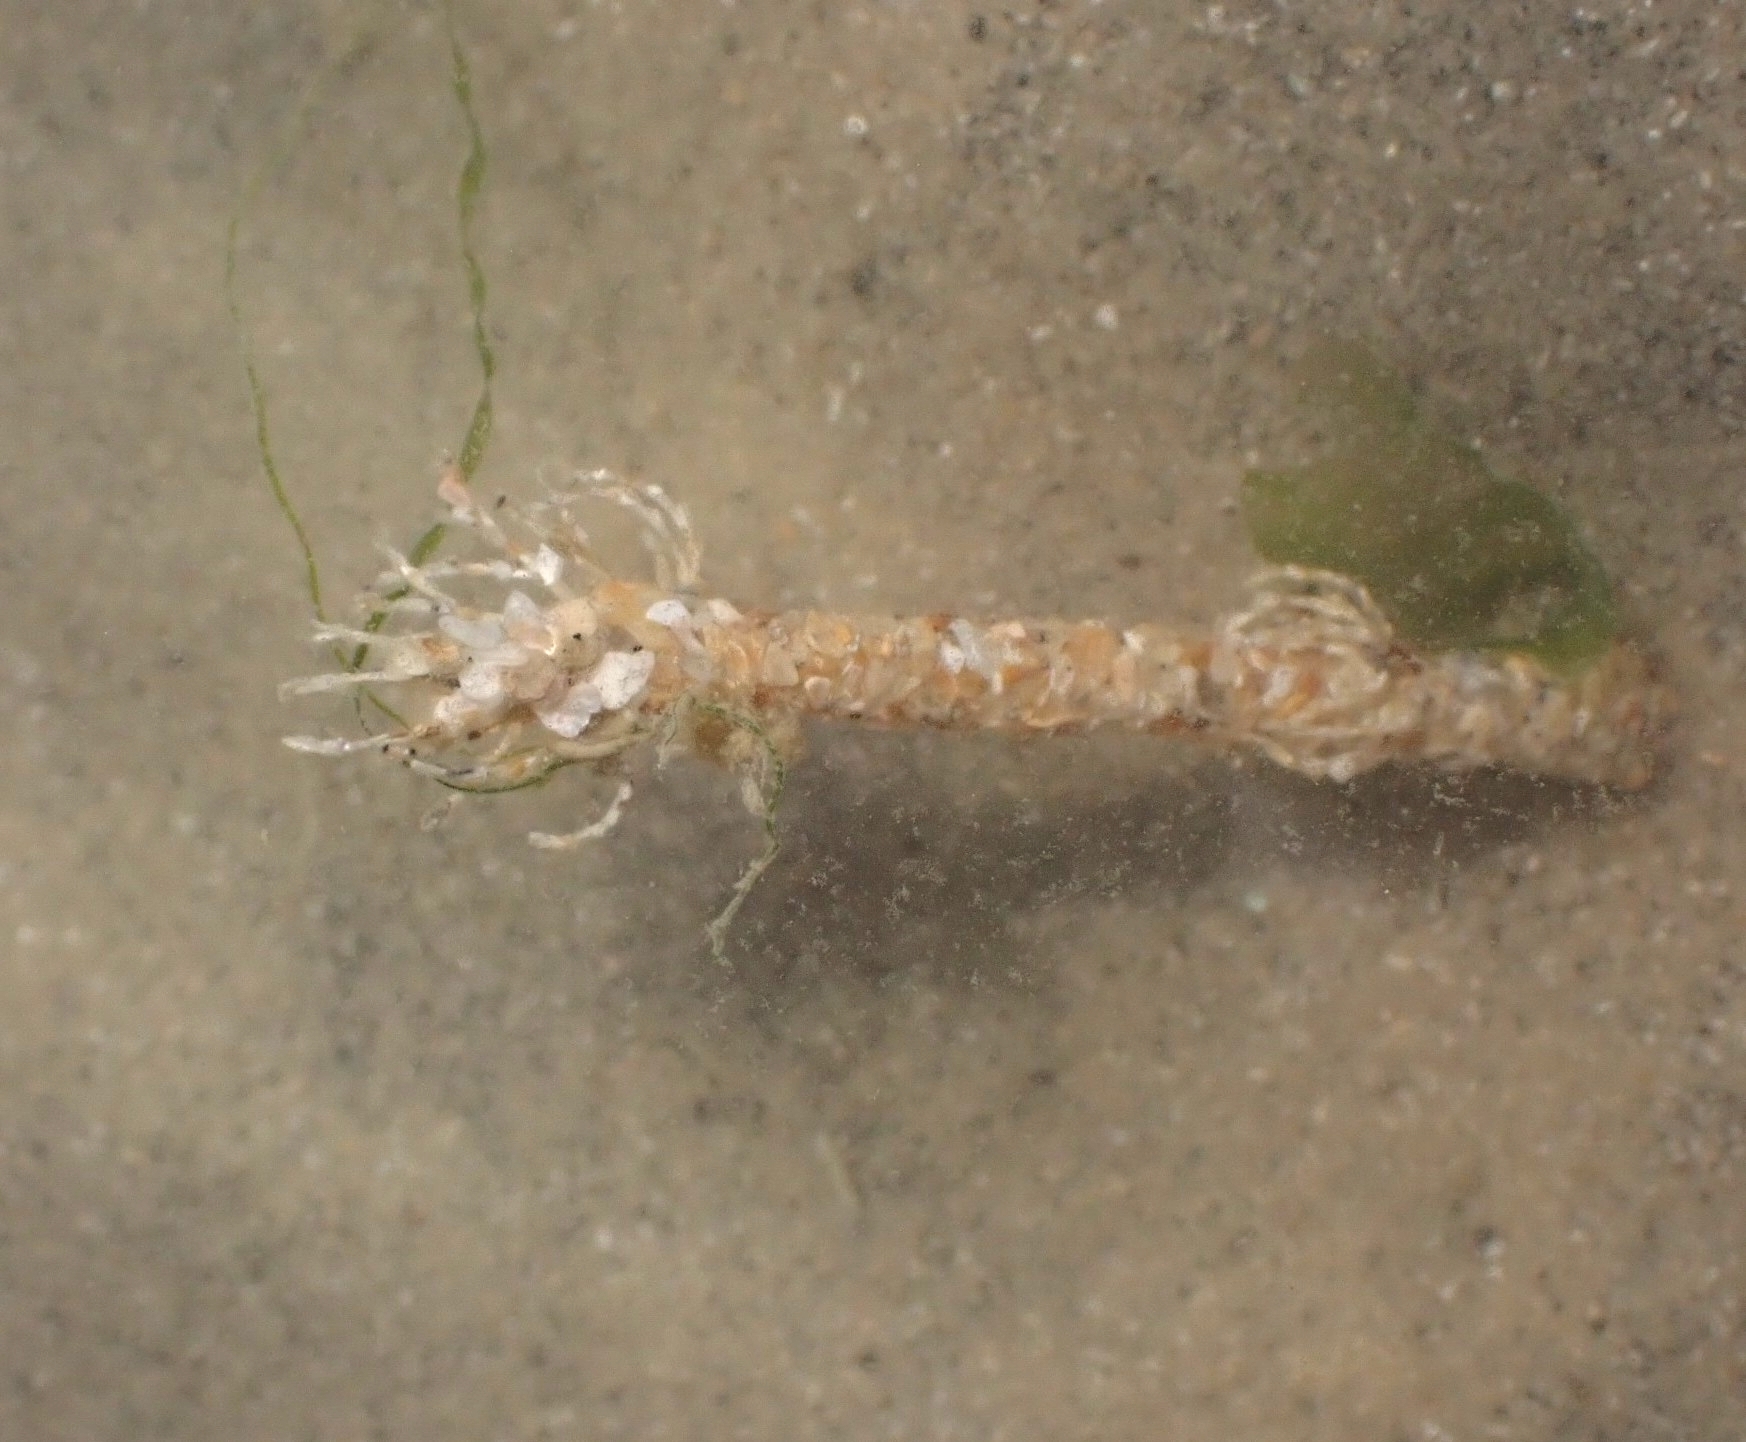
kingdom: Animalia
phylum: Annelida
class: Polychaeta
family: Terebellidae
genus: Lanice
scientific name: Lanice conchilega
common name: Sand mason
